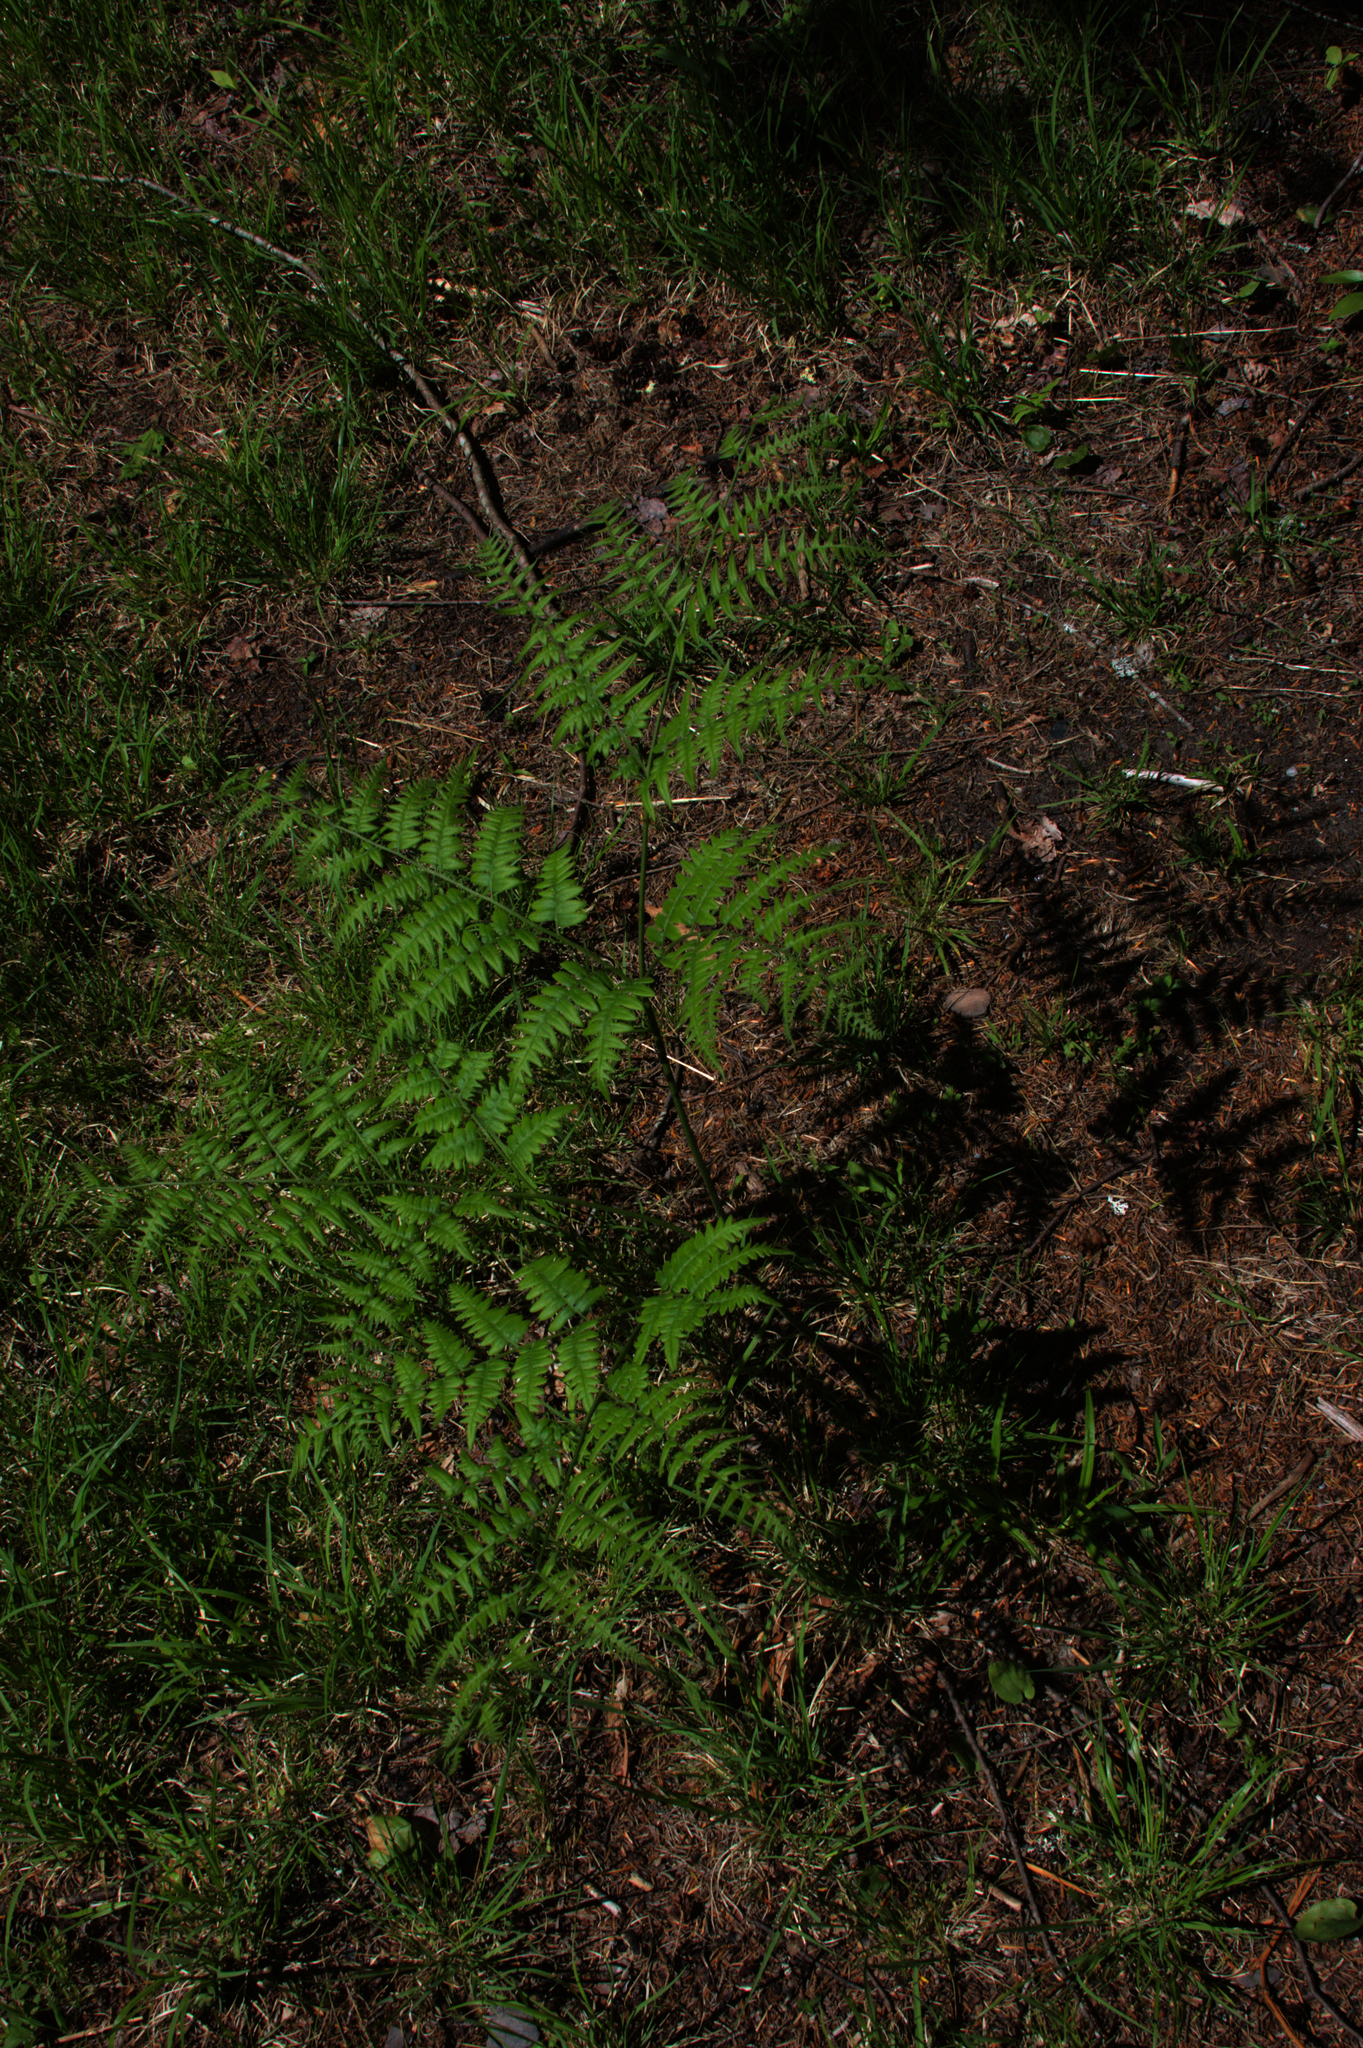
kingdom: Plantae
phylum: Tracheophyta
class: Polypodiopsida
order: Polypodiales
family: Dennstaedtiaceae
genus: Pteridium
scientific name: Pteridium aquilinum
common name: Bracken
